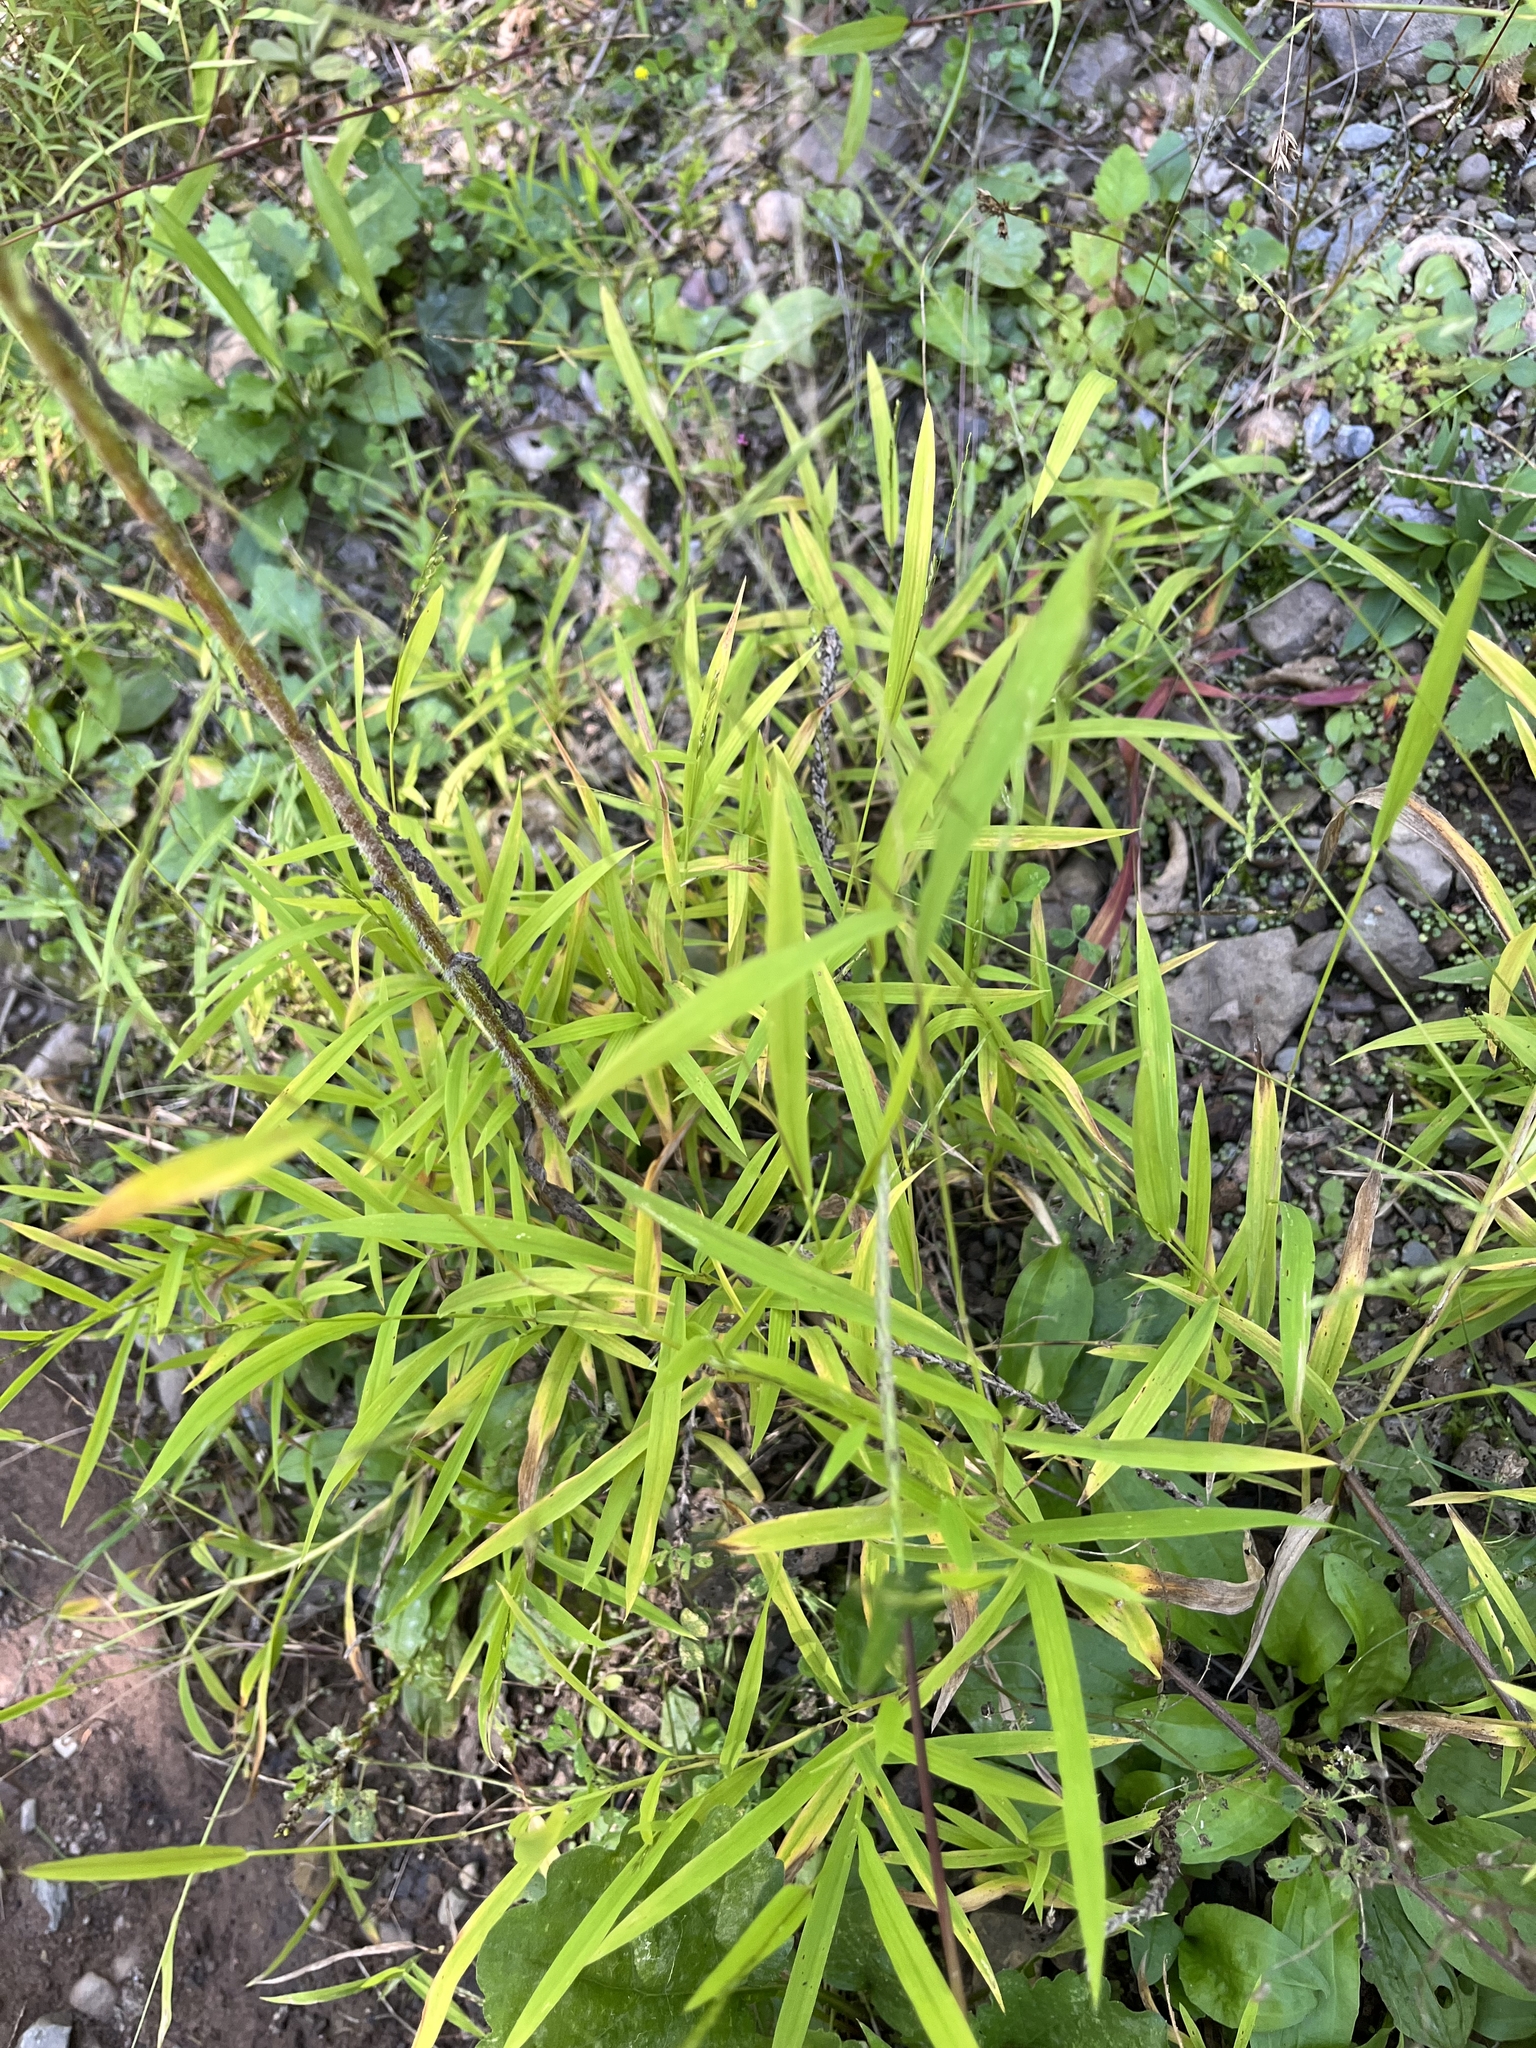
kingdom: Plantae
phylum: Tracheophyta
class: Liliopsida
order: Poales
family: Poaceae
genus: Leersia
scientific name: Leersia virginica
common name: White cutgrass
